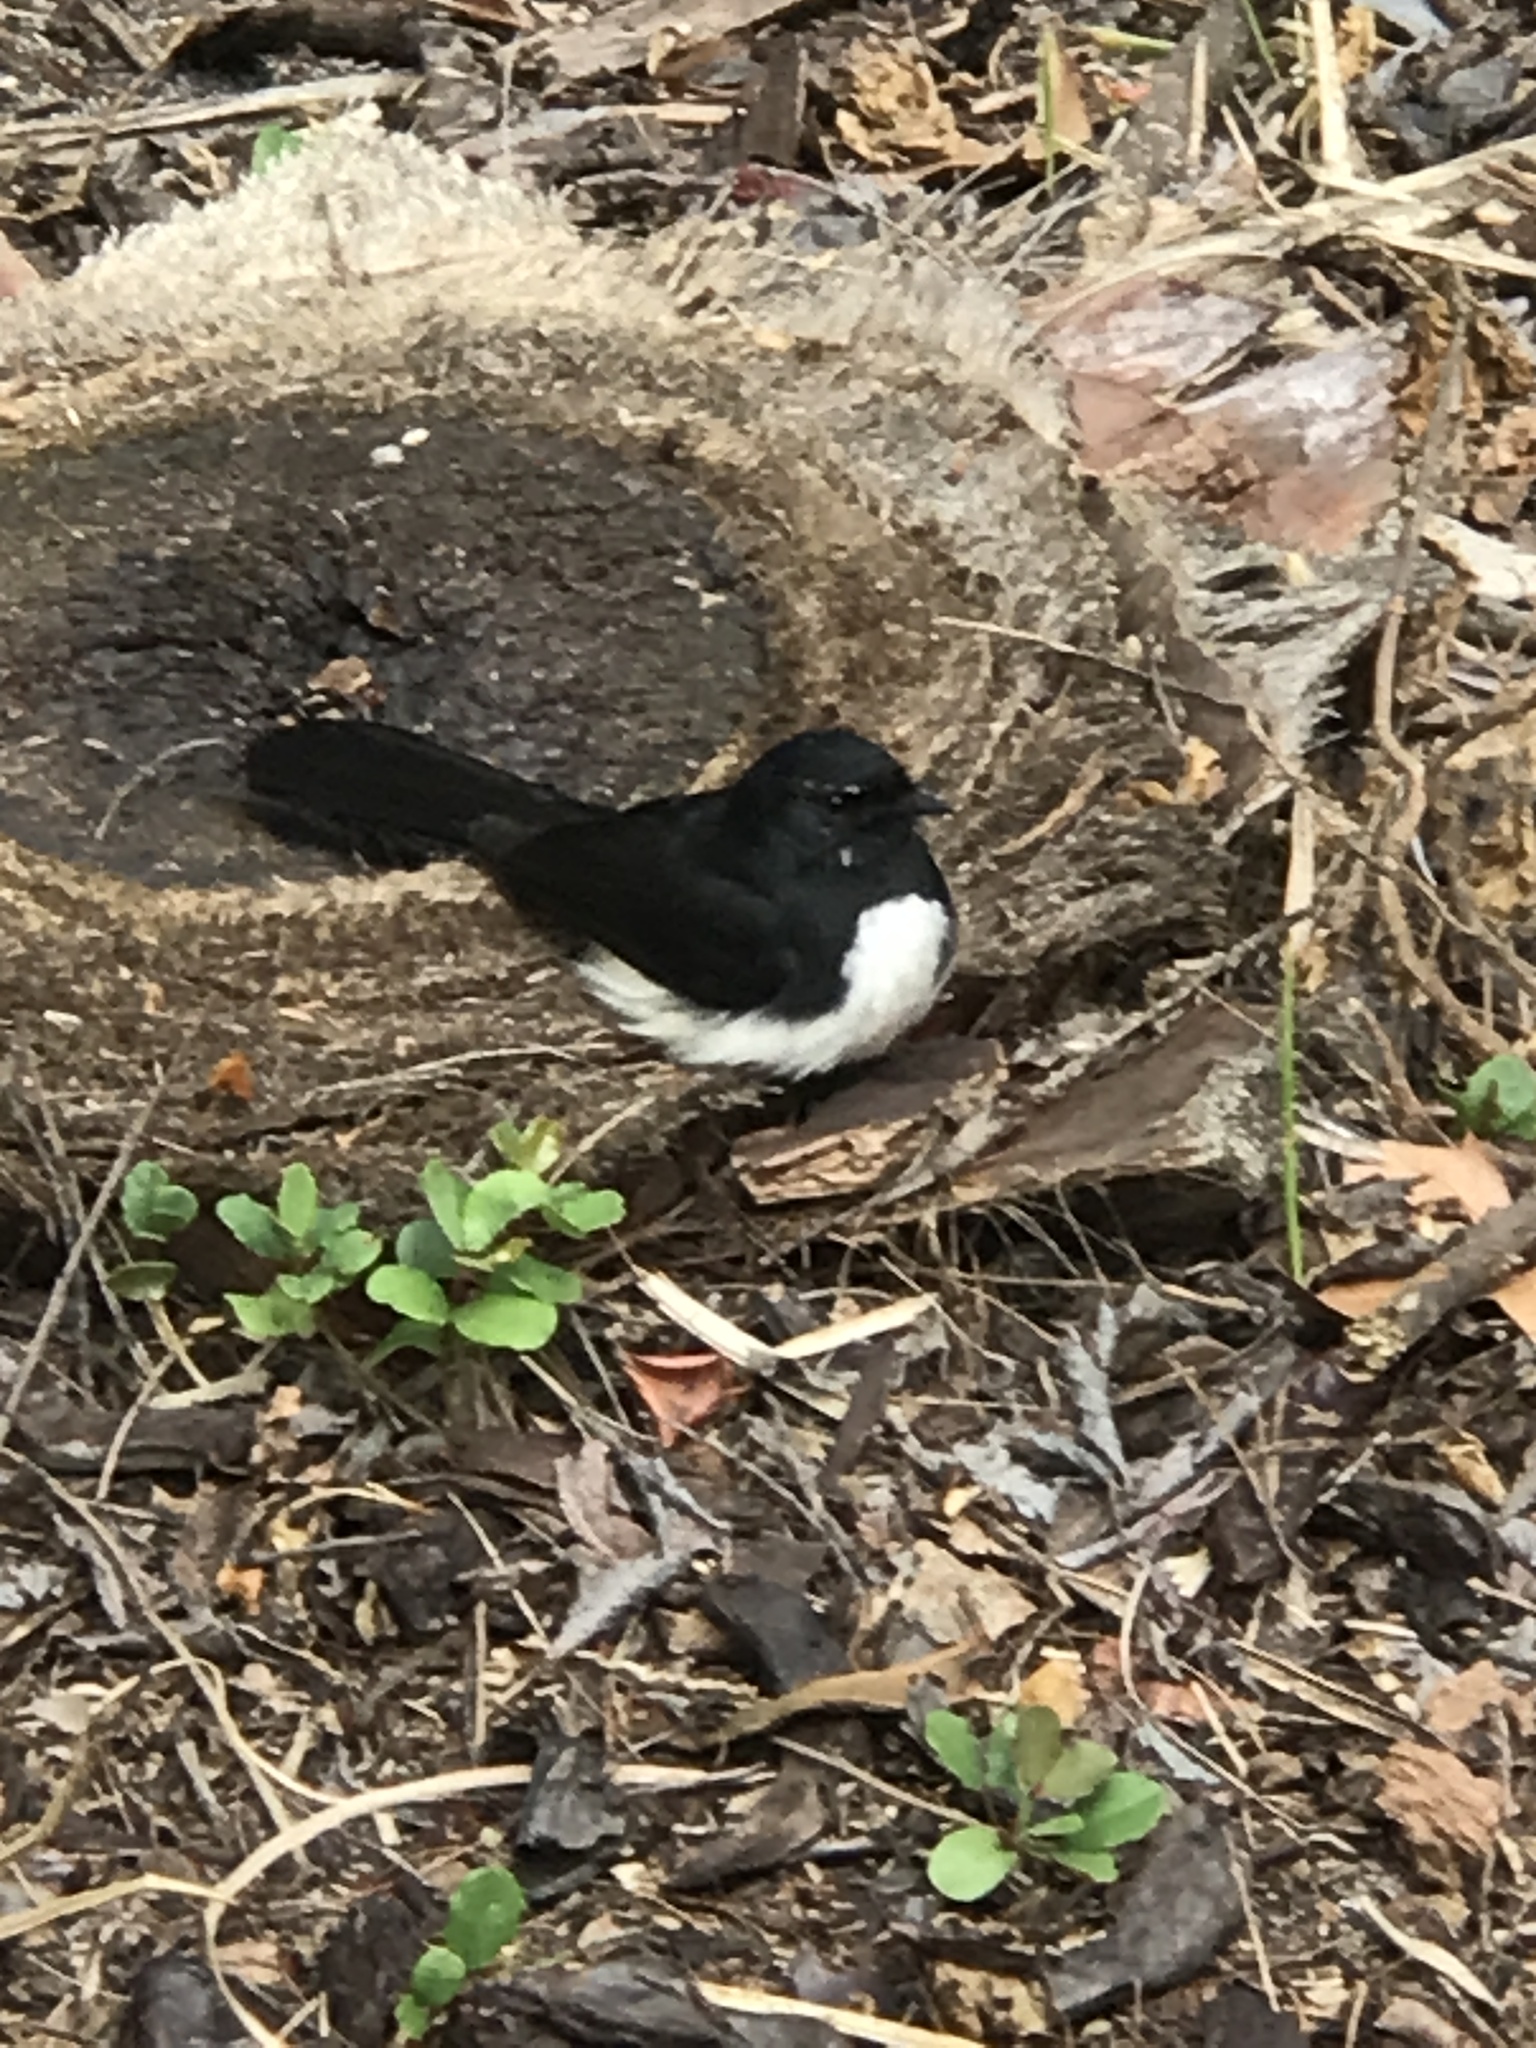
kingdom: Animalia
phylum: Chordata
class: Aves
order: Passeriformes
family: Rhipiduridae
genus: Rhipidura
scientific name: Rhipidura leucophrys
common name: Willie wagtail
